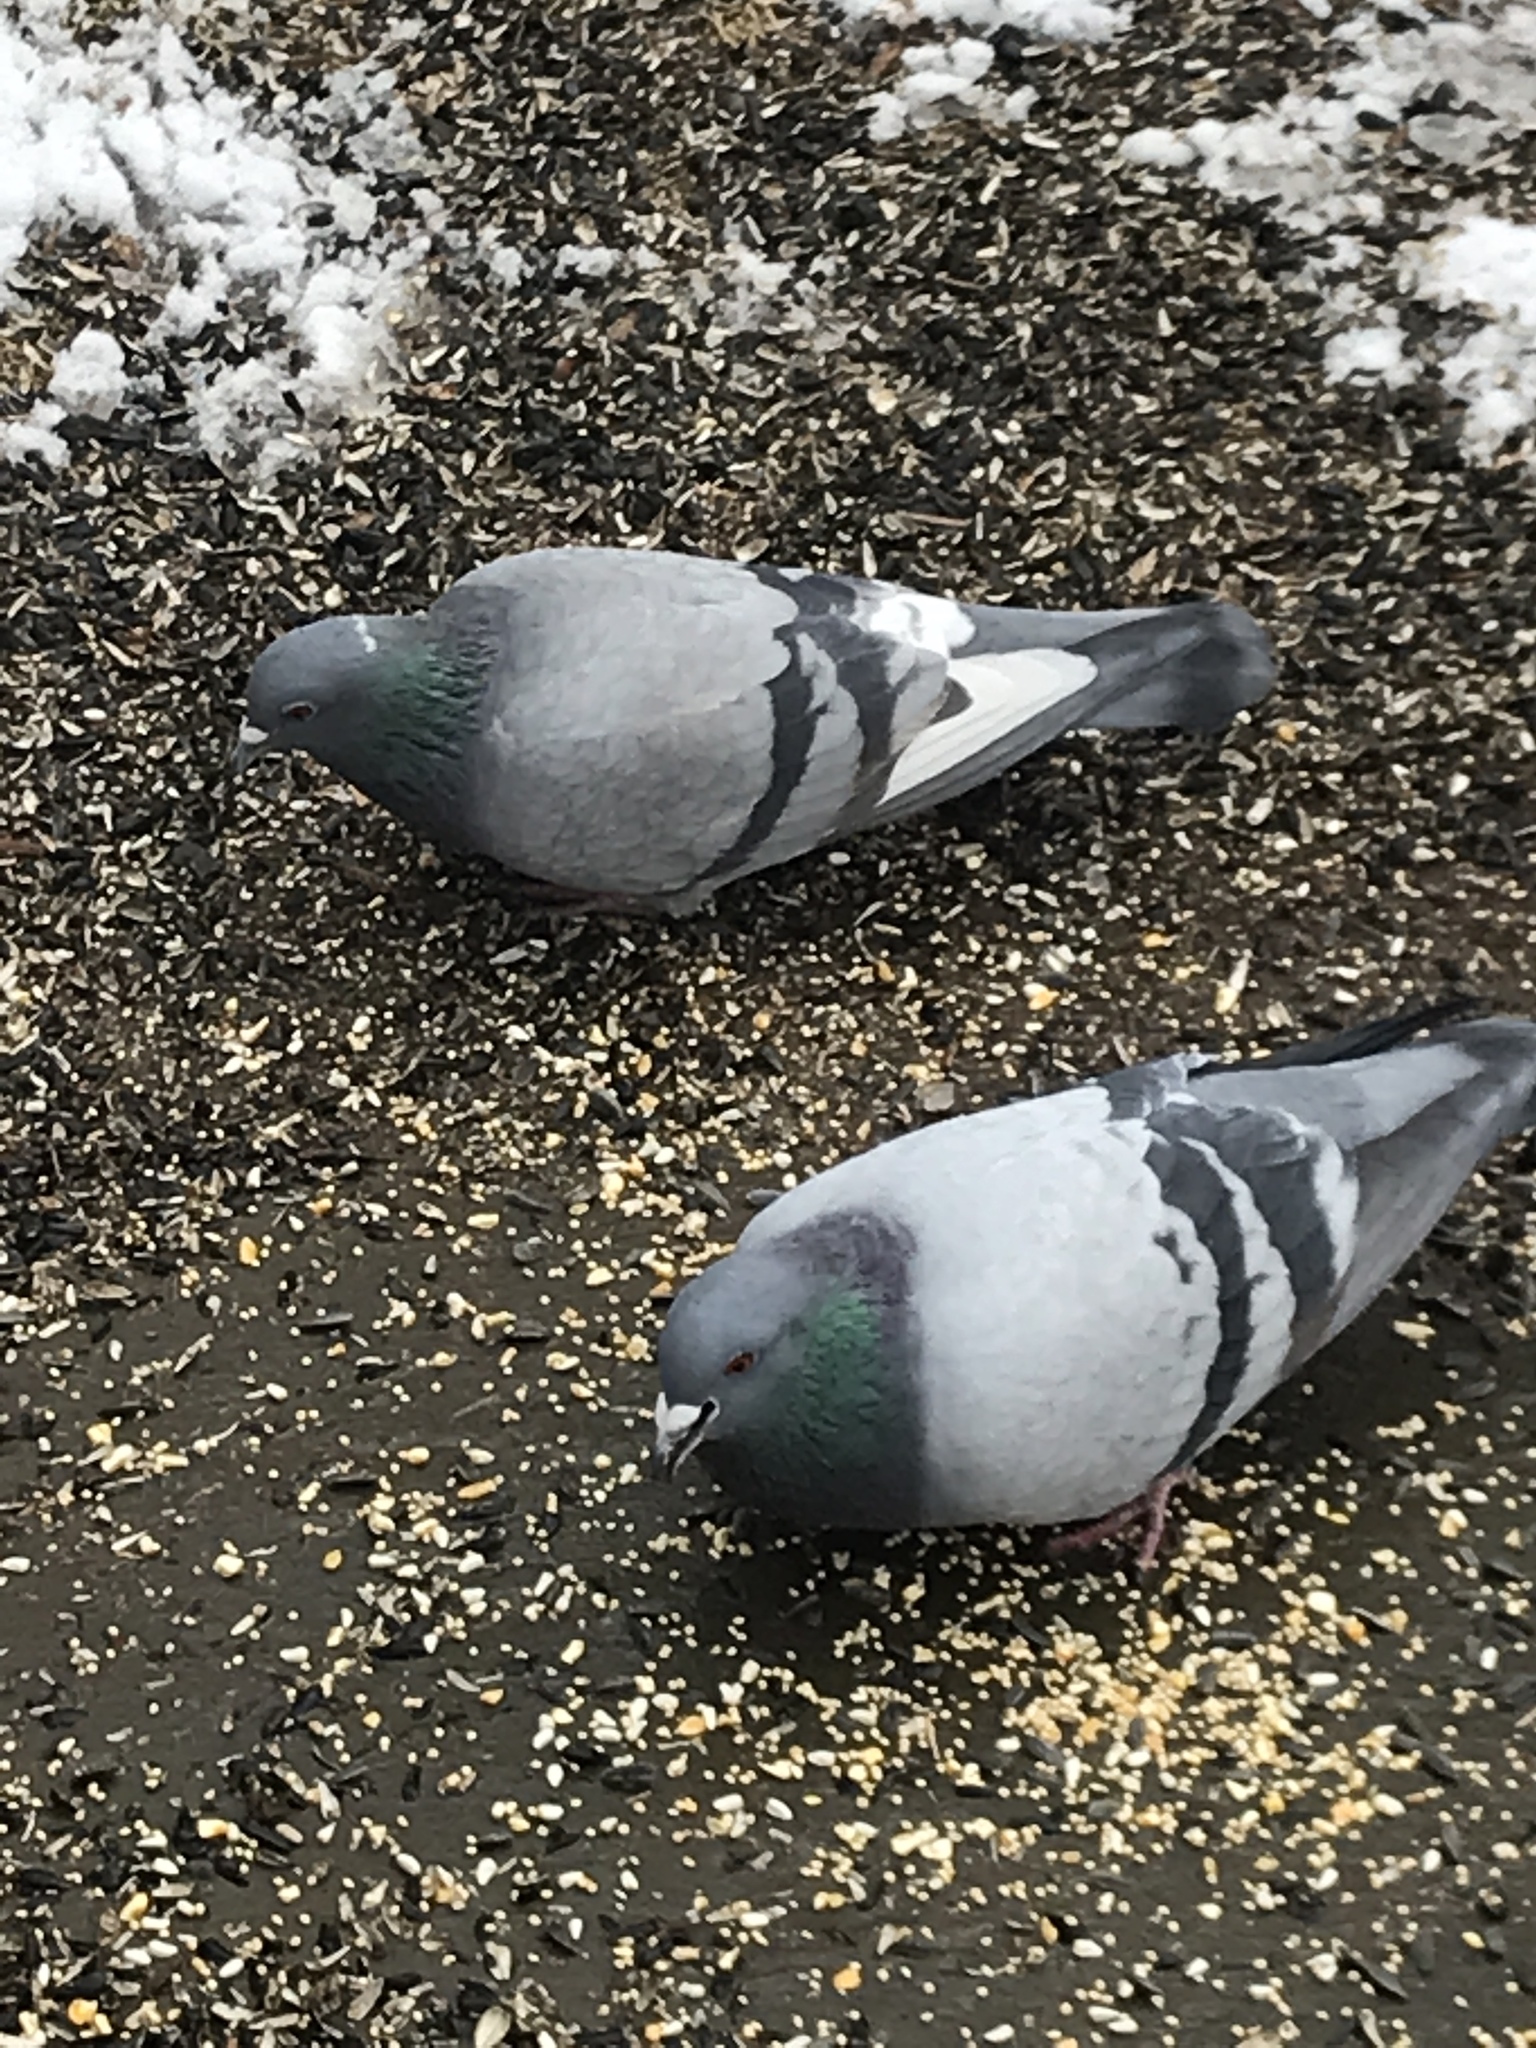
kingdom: Animalia
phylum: Chordata
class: Aves
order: Columbiformes
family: Columbidae
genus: Columba
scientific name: Columba livia
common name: Rock pigeon
